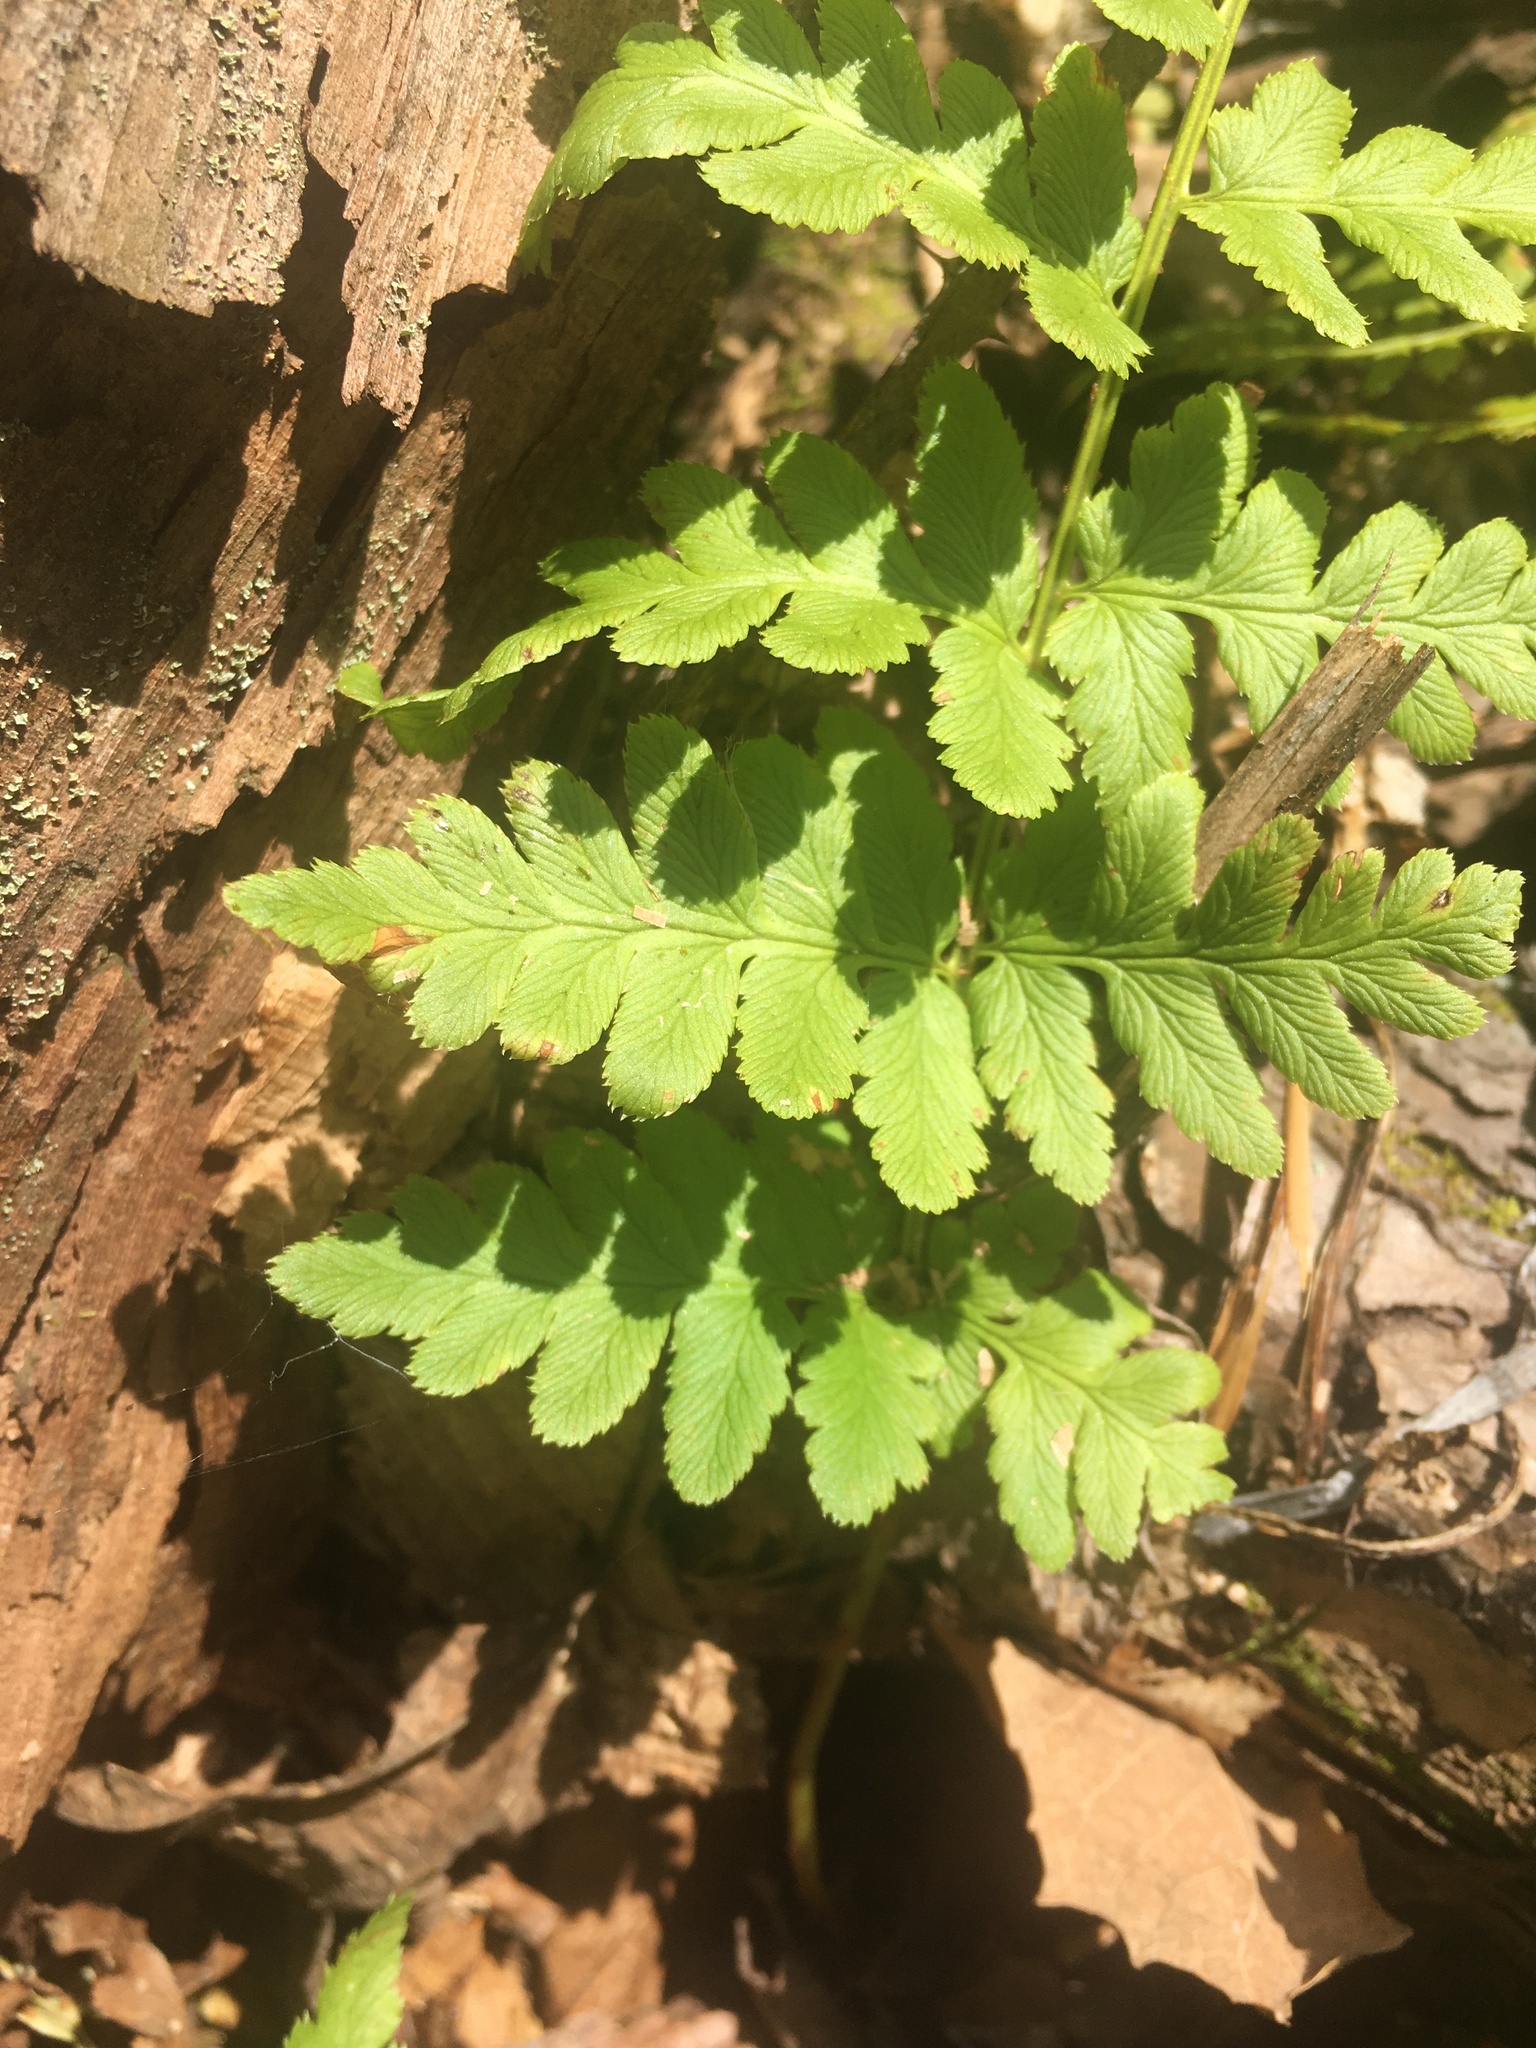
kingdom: Plantae
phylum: Tracheophyta
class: Polypodiopsida
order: Polypodiales
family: Dryopteridaceae
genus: Dryopteris
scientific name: Dryopteris cristata
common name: Crested wood fern
